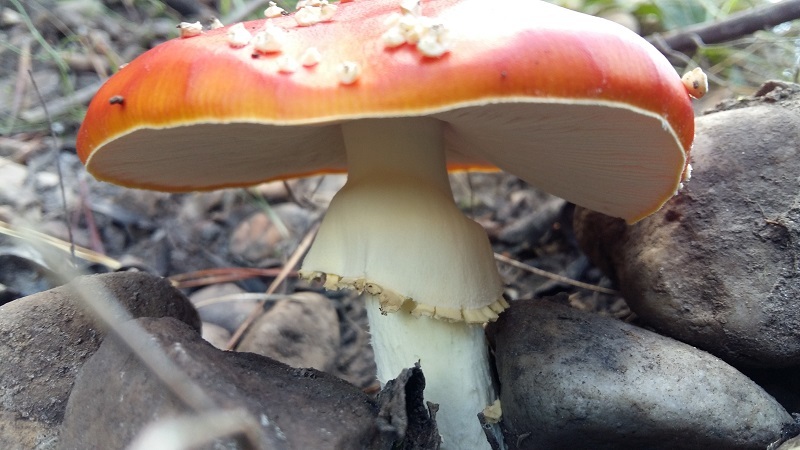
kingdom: Fungi
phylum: Basidiomycota
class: Agaricomycetes
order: Agaricales
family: Amanitaceae
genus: Amanita
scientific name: Amanita muscaria
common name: Fly agaric
